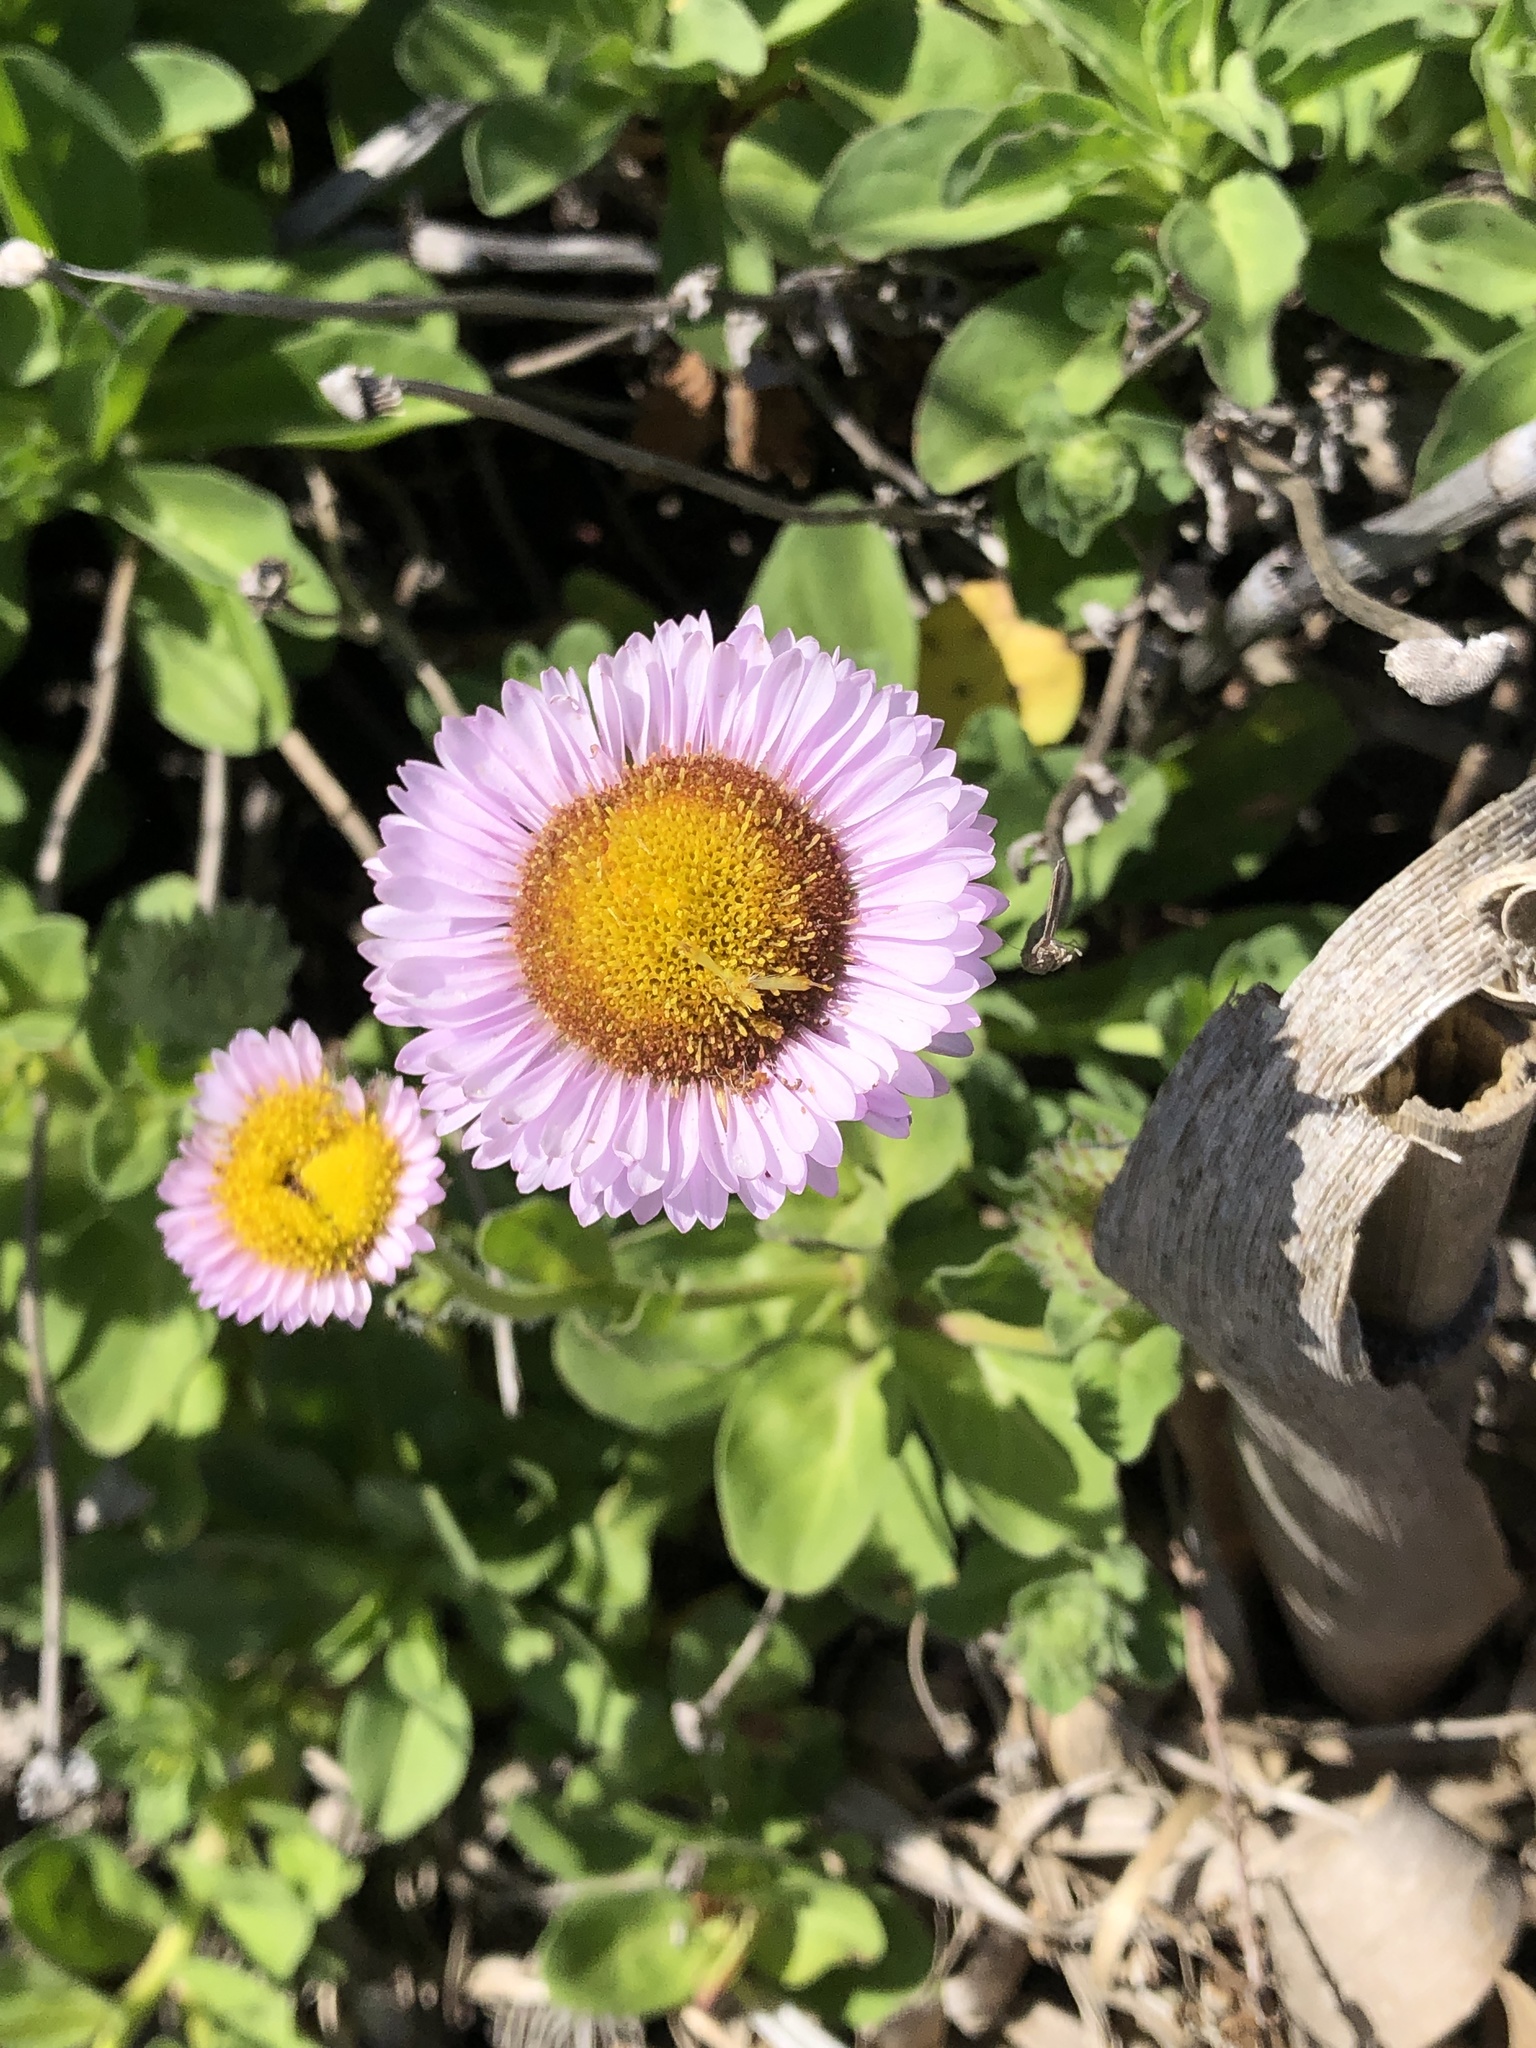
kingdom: Plantae
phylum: Tracheophyta
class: Magnoliopsida
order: Asterales
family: Asteraceae
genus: Erigeron
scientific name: Erigeron glaucus
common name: Seaside daisy
